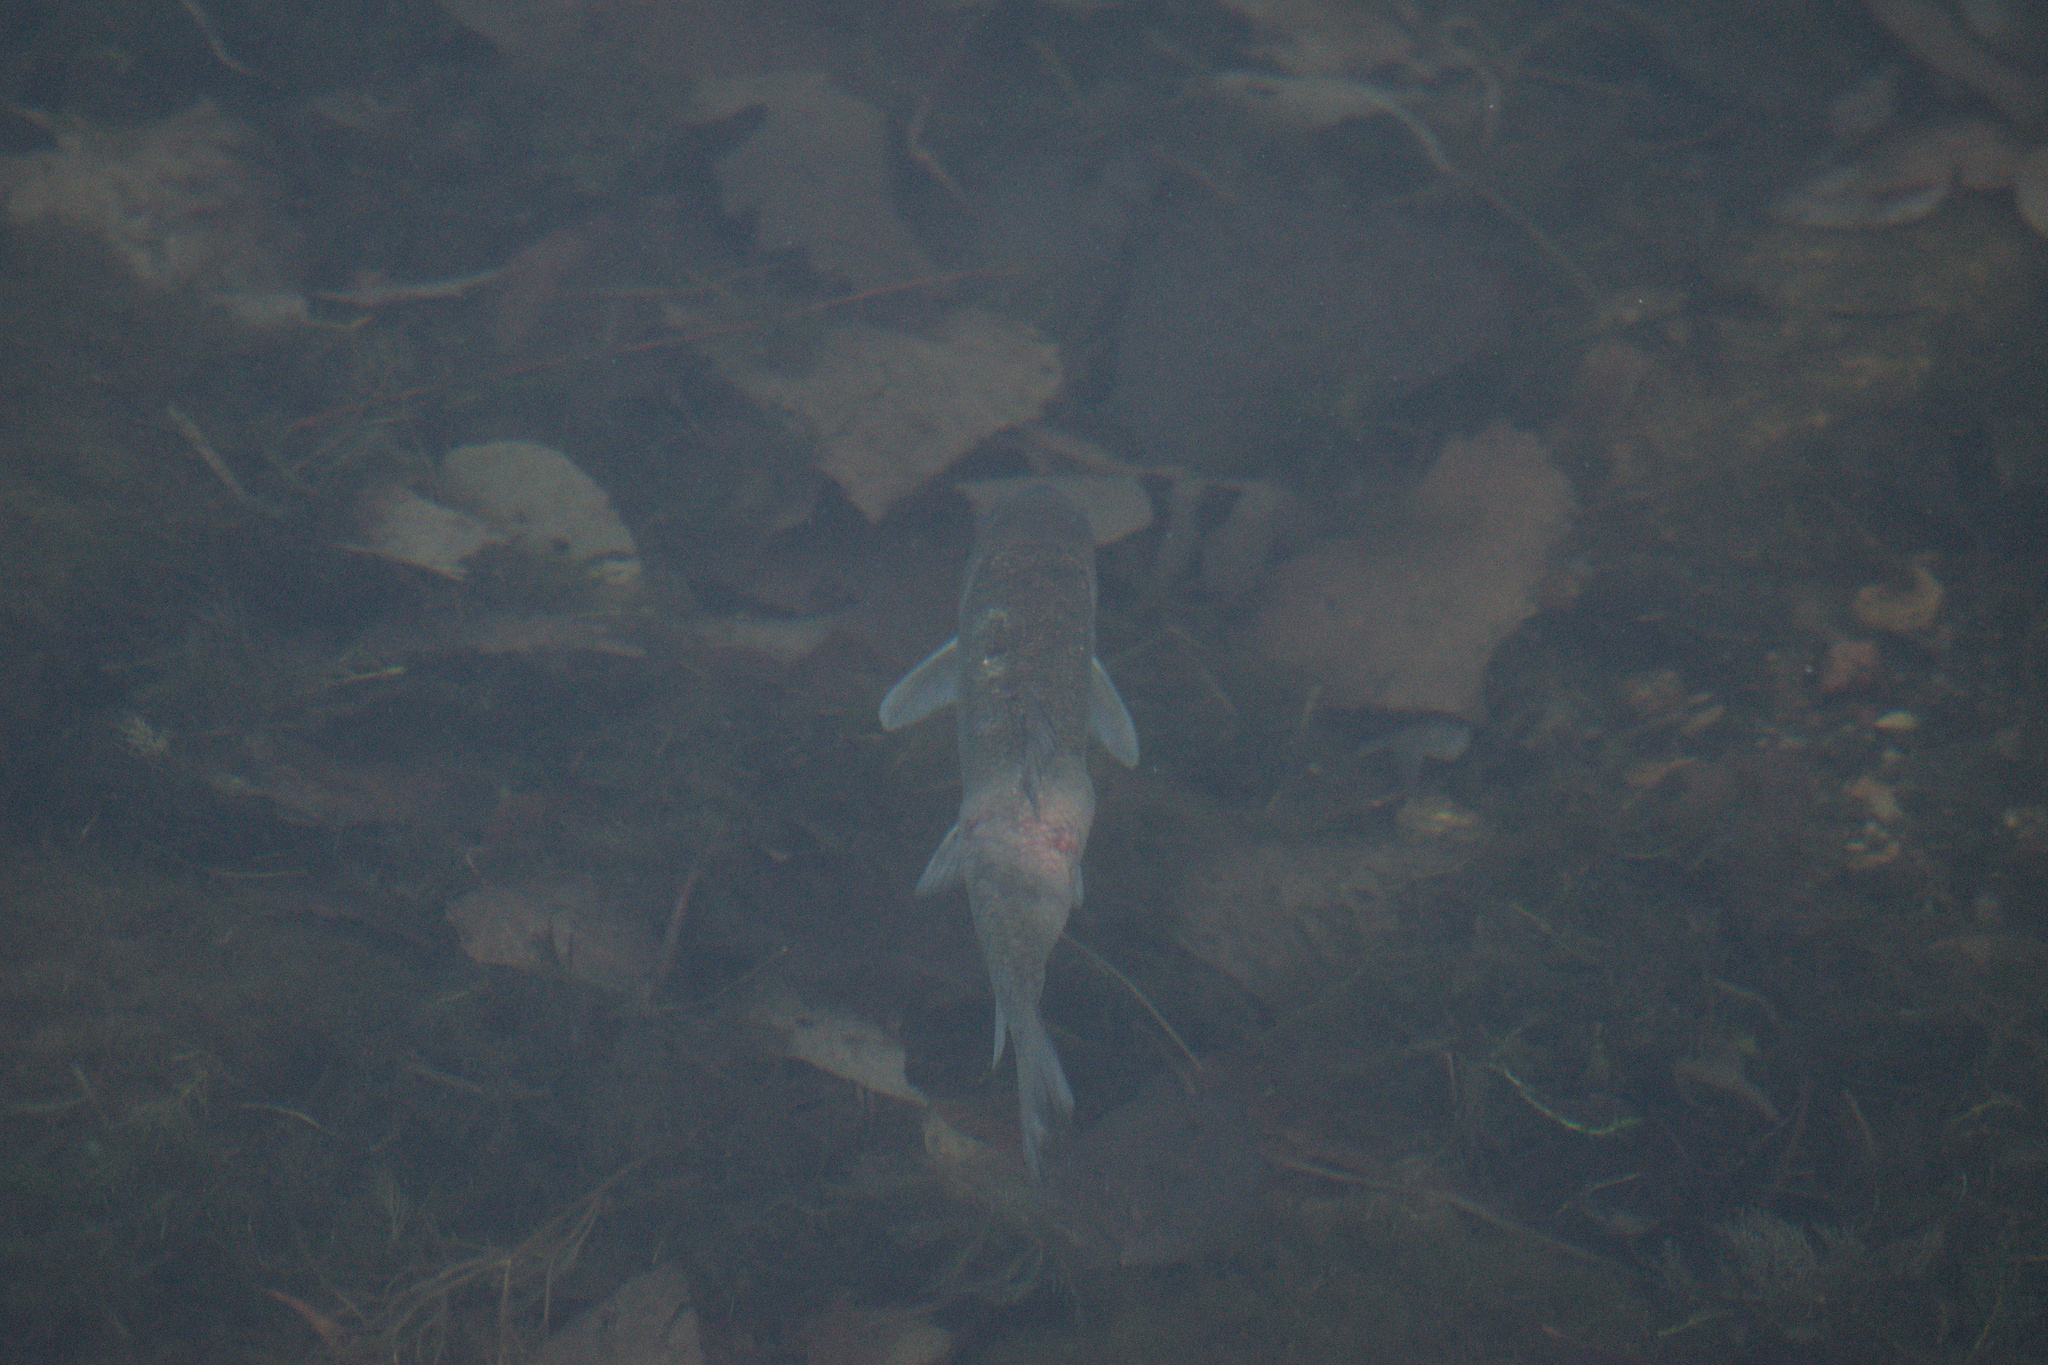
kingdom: Animalia
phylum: Chordata
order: Cypriniformes
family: Catostomidae
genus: Catostomus
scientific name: Catostomus commersonii
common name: White sucker
